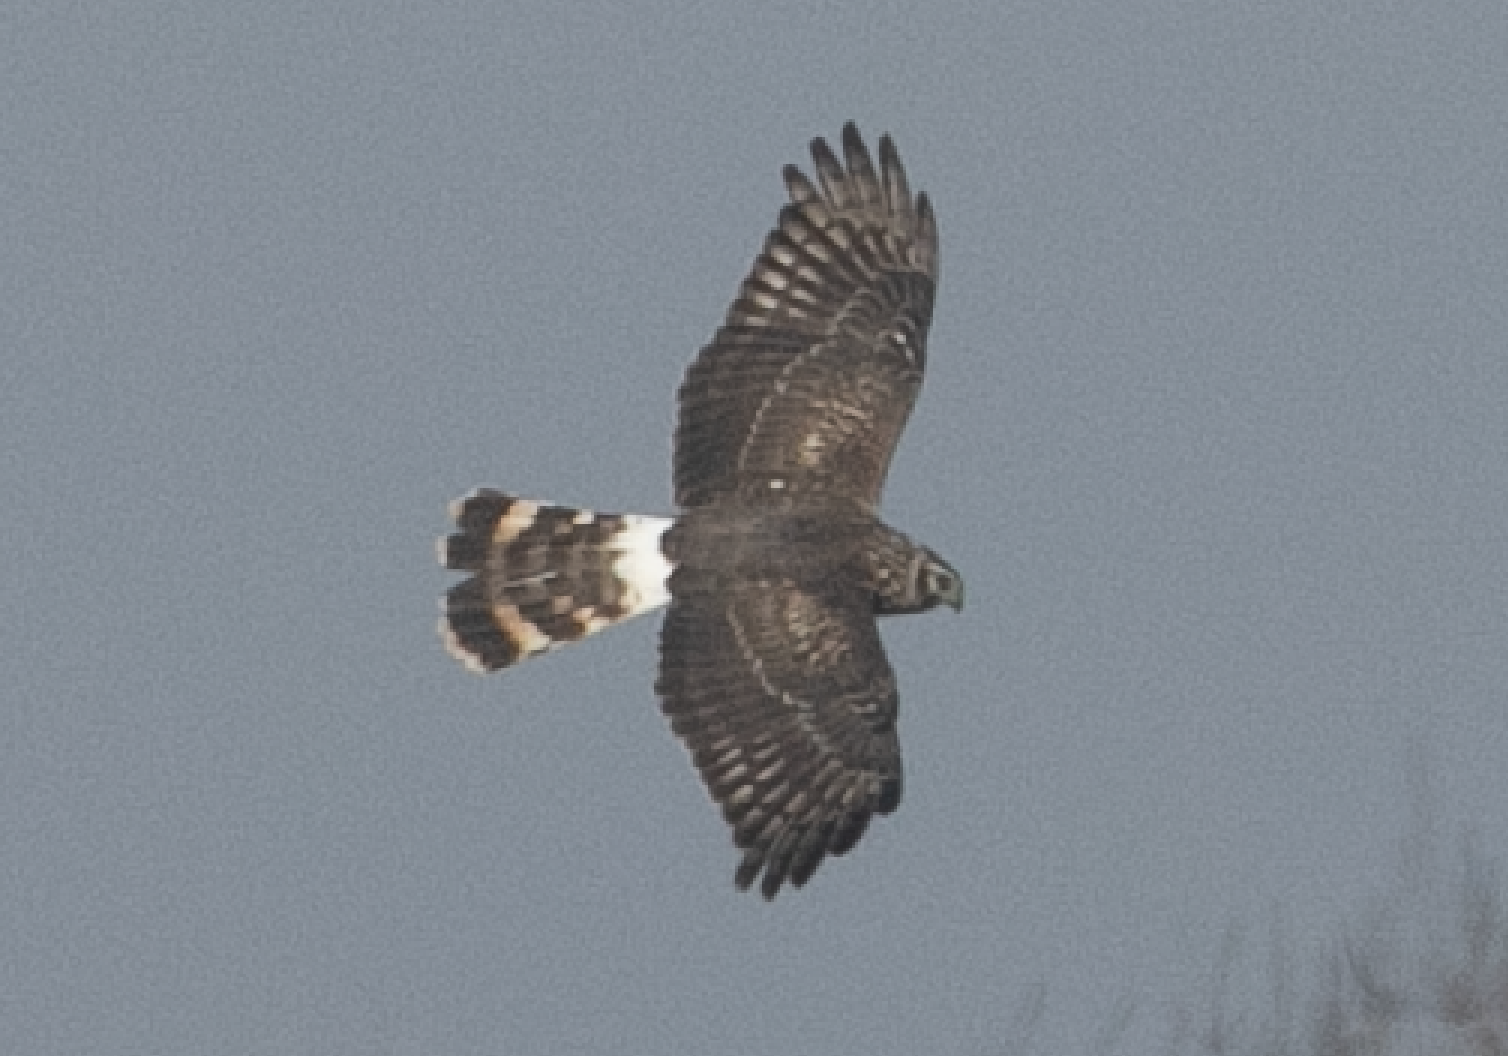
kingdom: Animalia
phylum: Chordata
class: Aves
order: Accipitriformes
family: Accipitridae
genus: Circus
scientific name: Circus cyaneus
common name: Hen harrier
